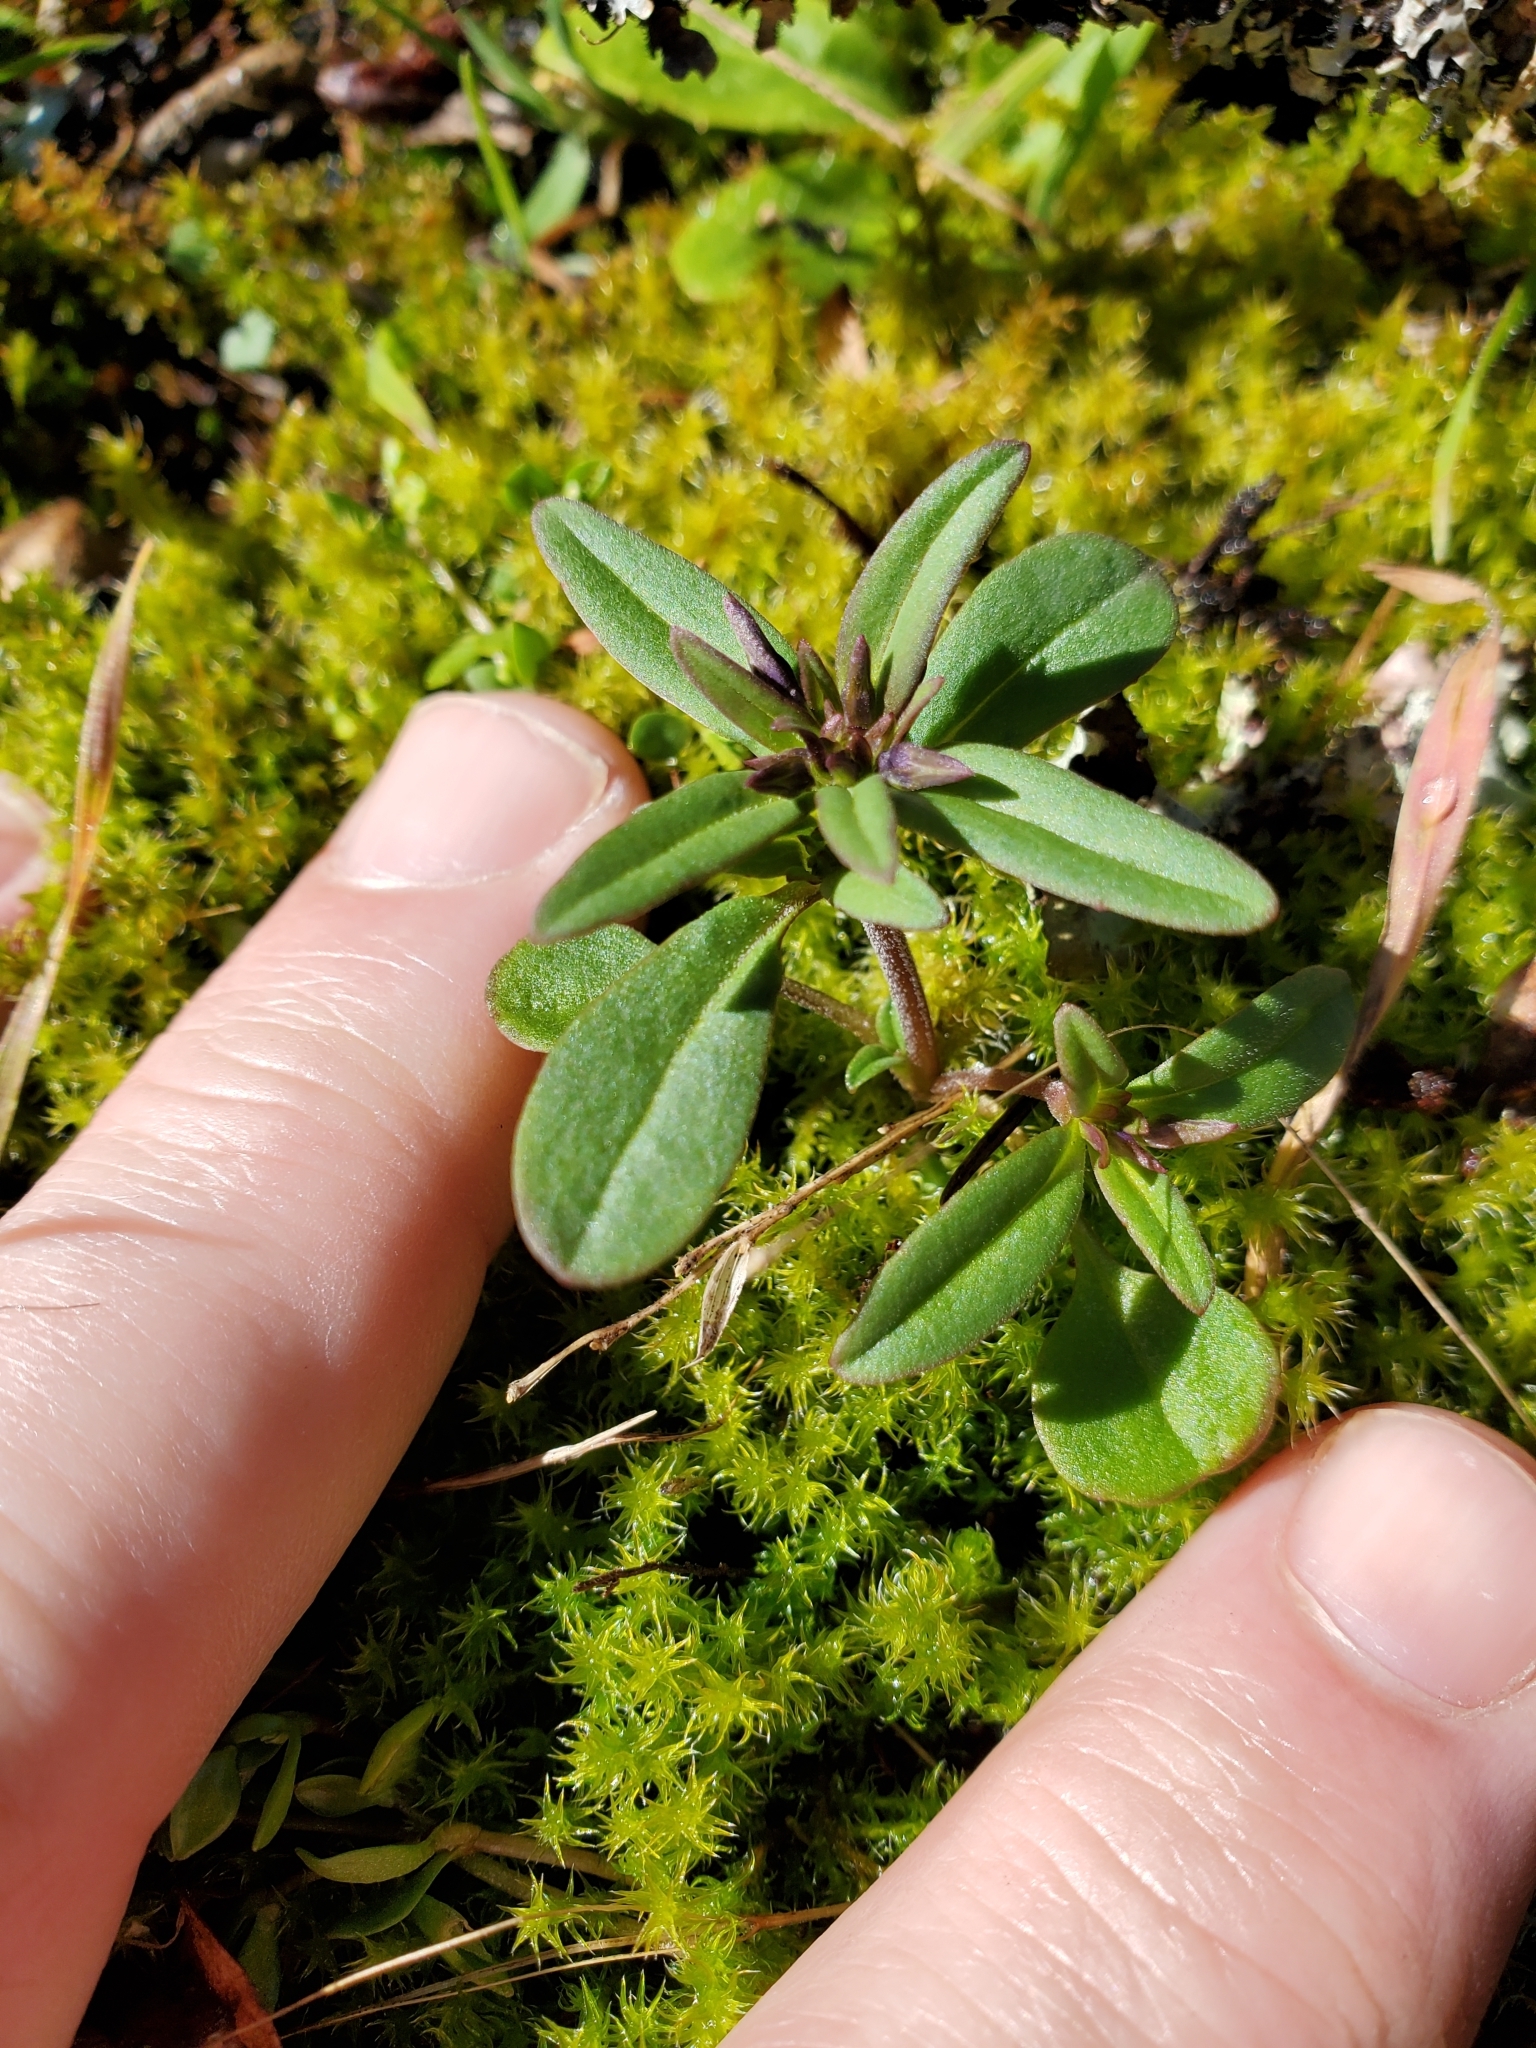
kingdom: Plantae
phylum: Tracheophyta
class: Magnoliopsida
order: Lamiales
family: Plantaginaceae
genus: Collinsia
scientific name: Collinsia parviflora
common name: Blue-lips
